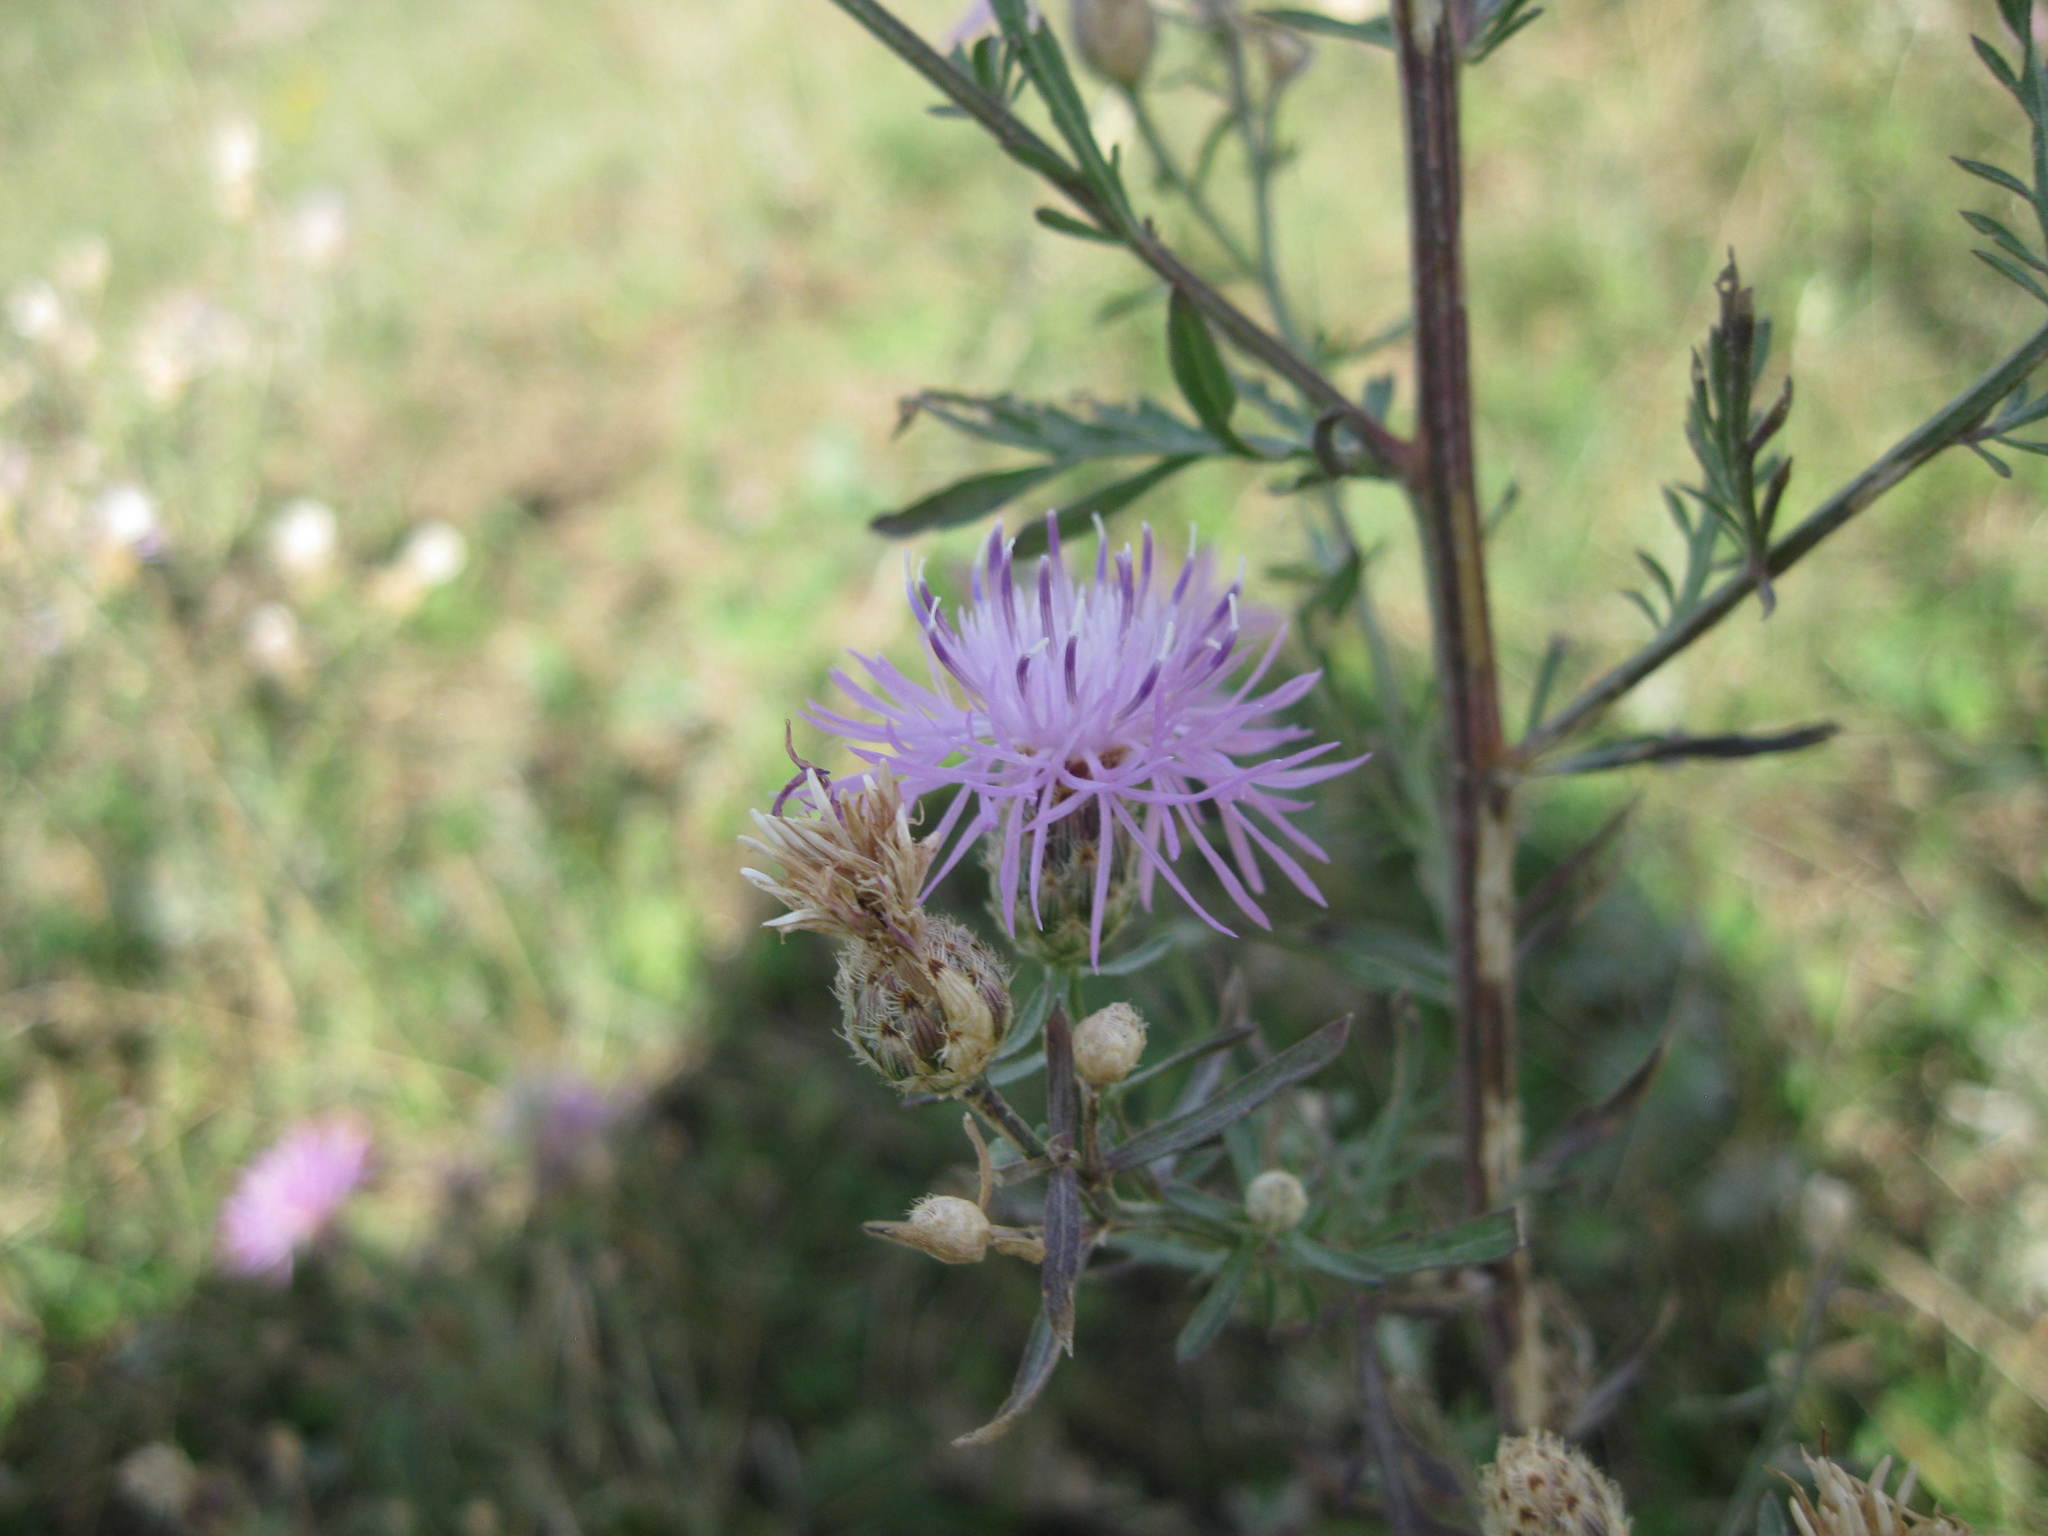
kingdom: Plantae
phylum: Tracheophyta
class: Magnoliopsida
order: Asterales
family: Asteraceae
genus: Centaurea
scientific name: Centaurea pseudomaculosa
